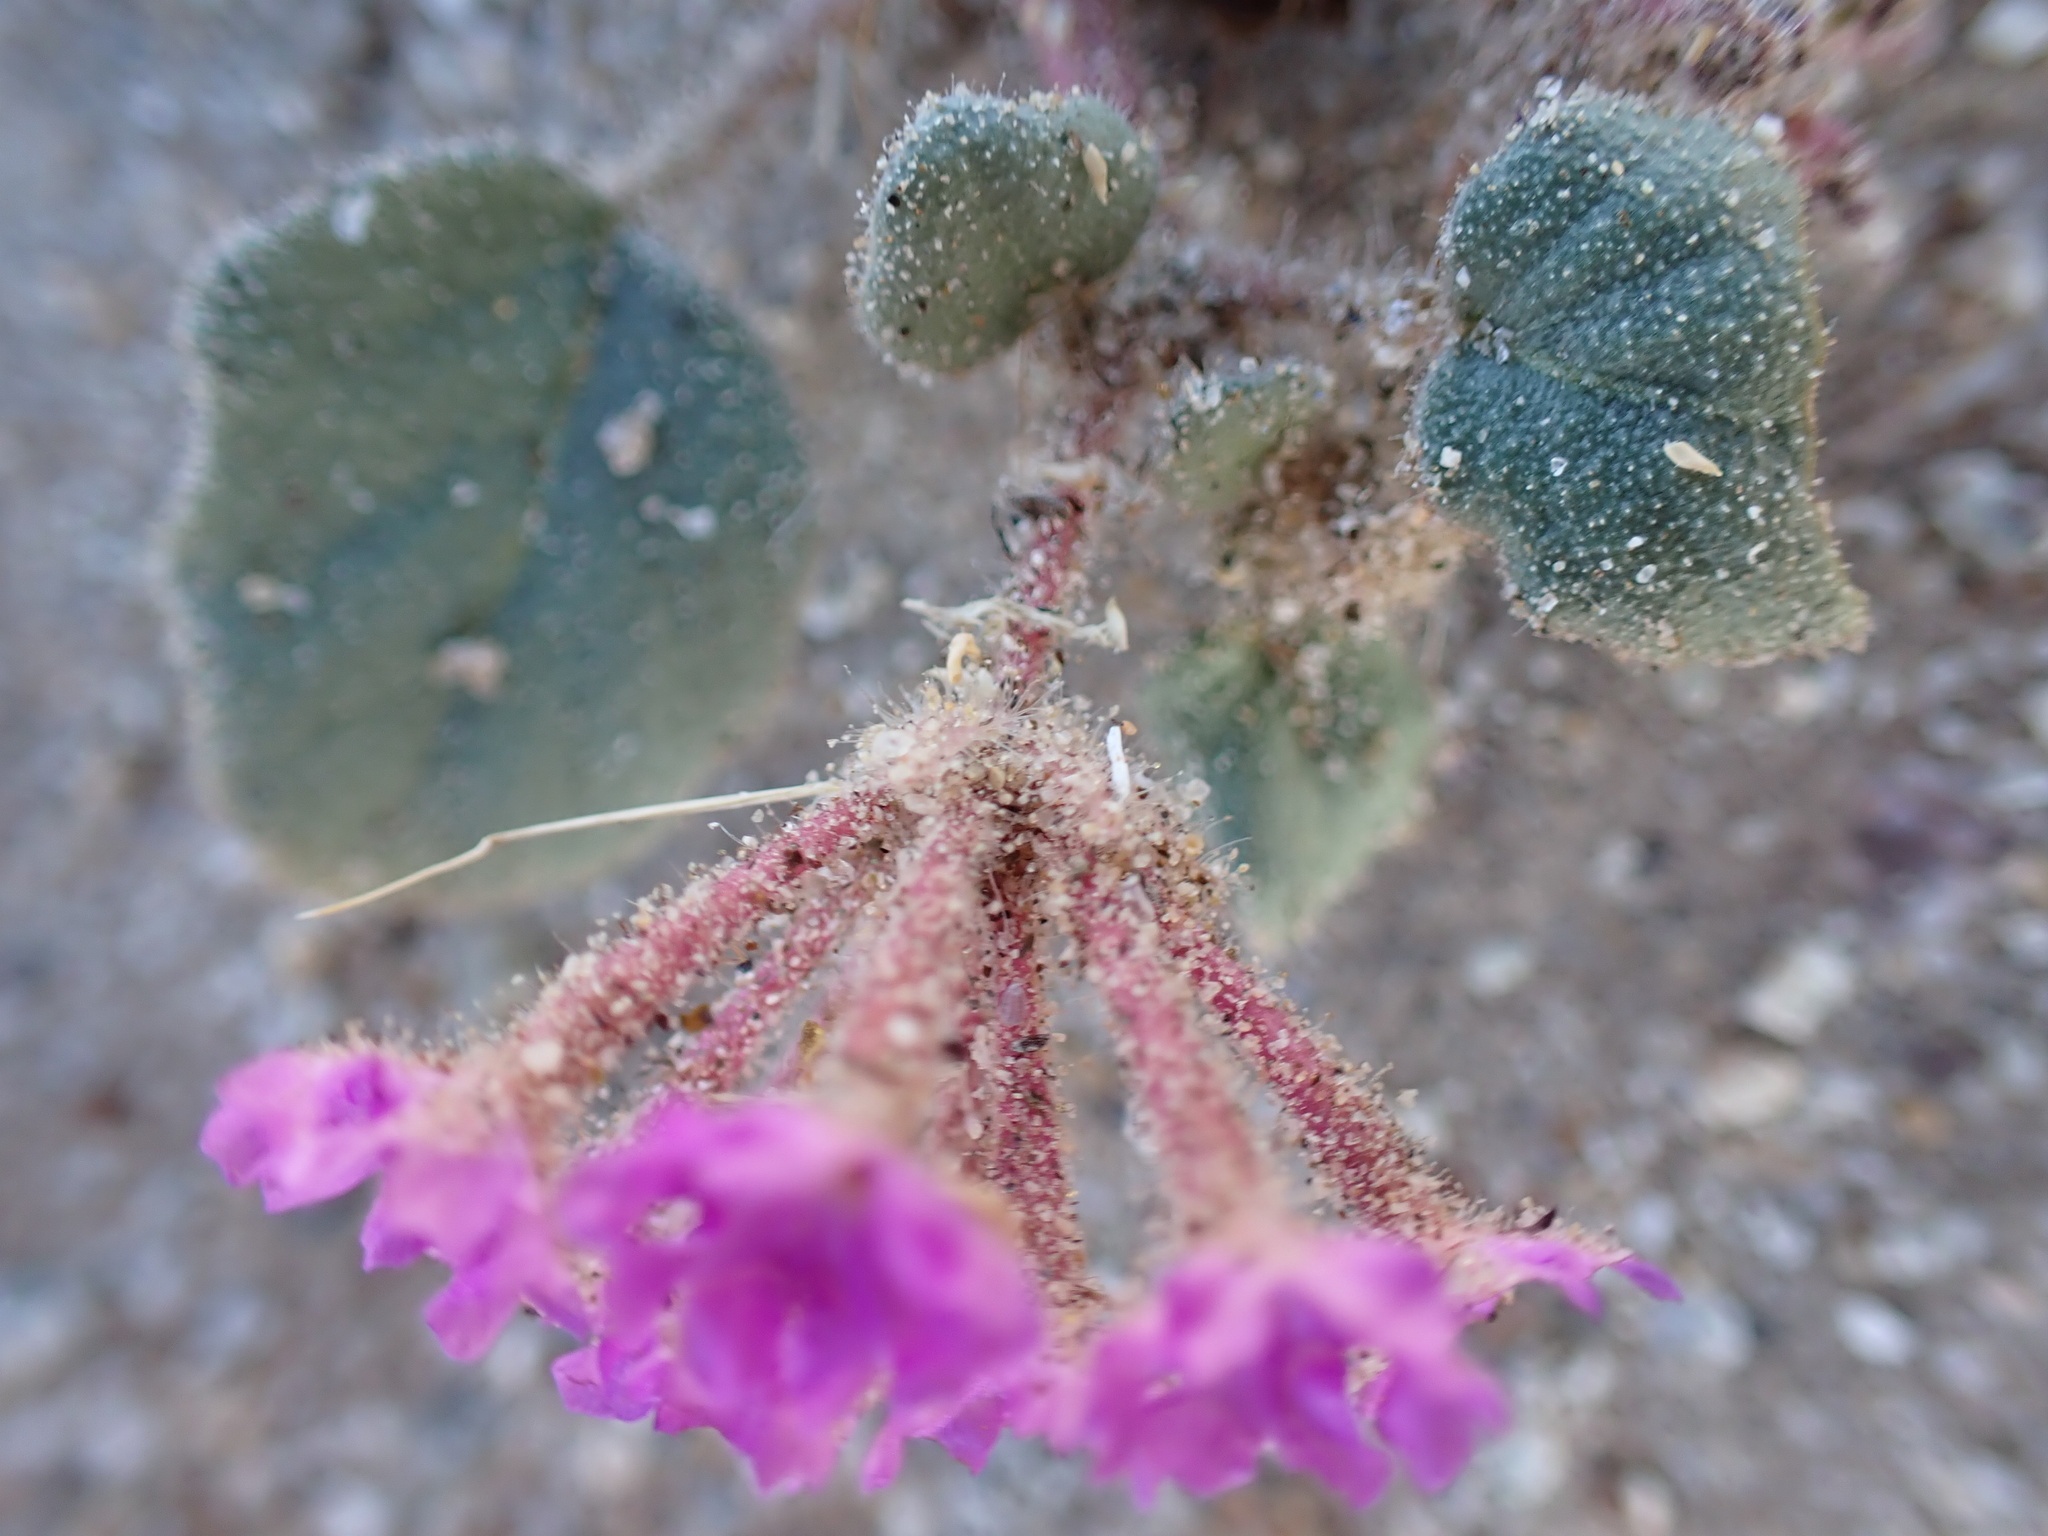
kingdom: Plantae
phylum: Tracheophyta
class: Magnoliopsida
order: Caryophyllales
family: Nyctaginaceae
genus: Abronia
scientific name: Abronia villosa
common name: Desert sand-verbena
